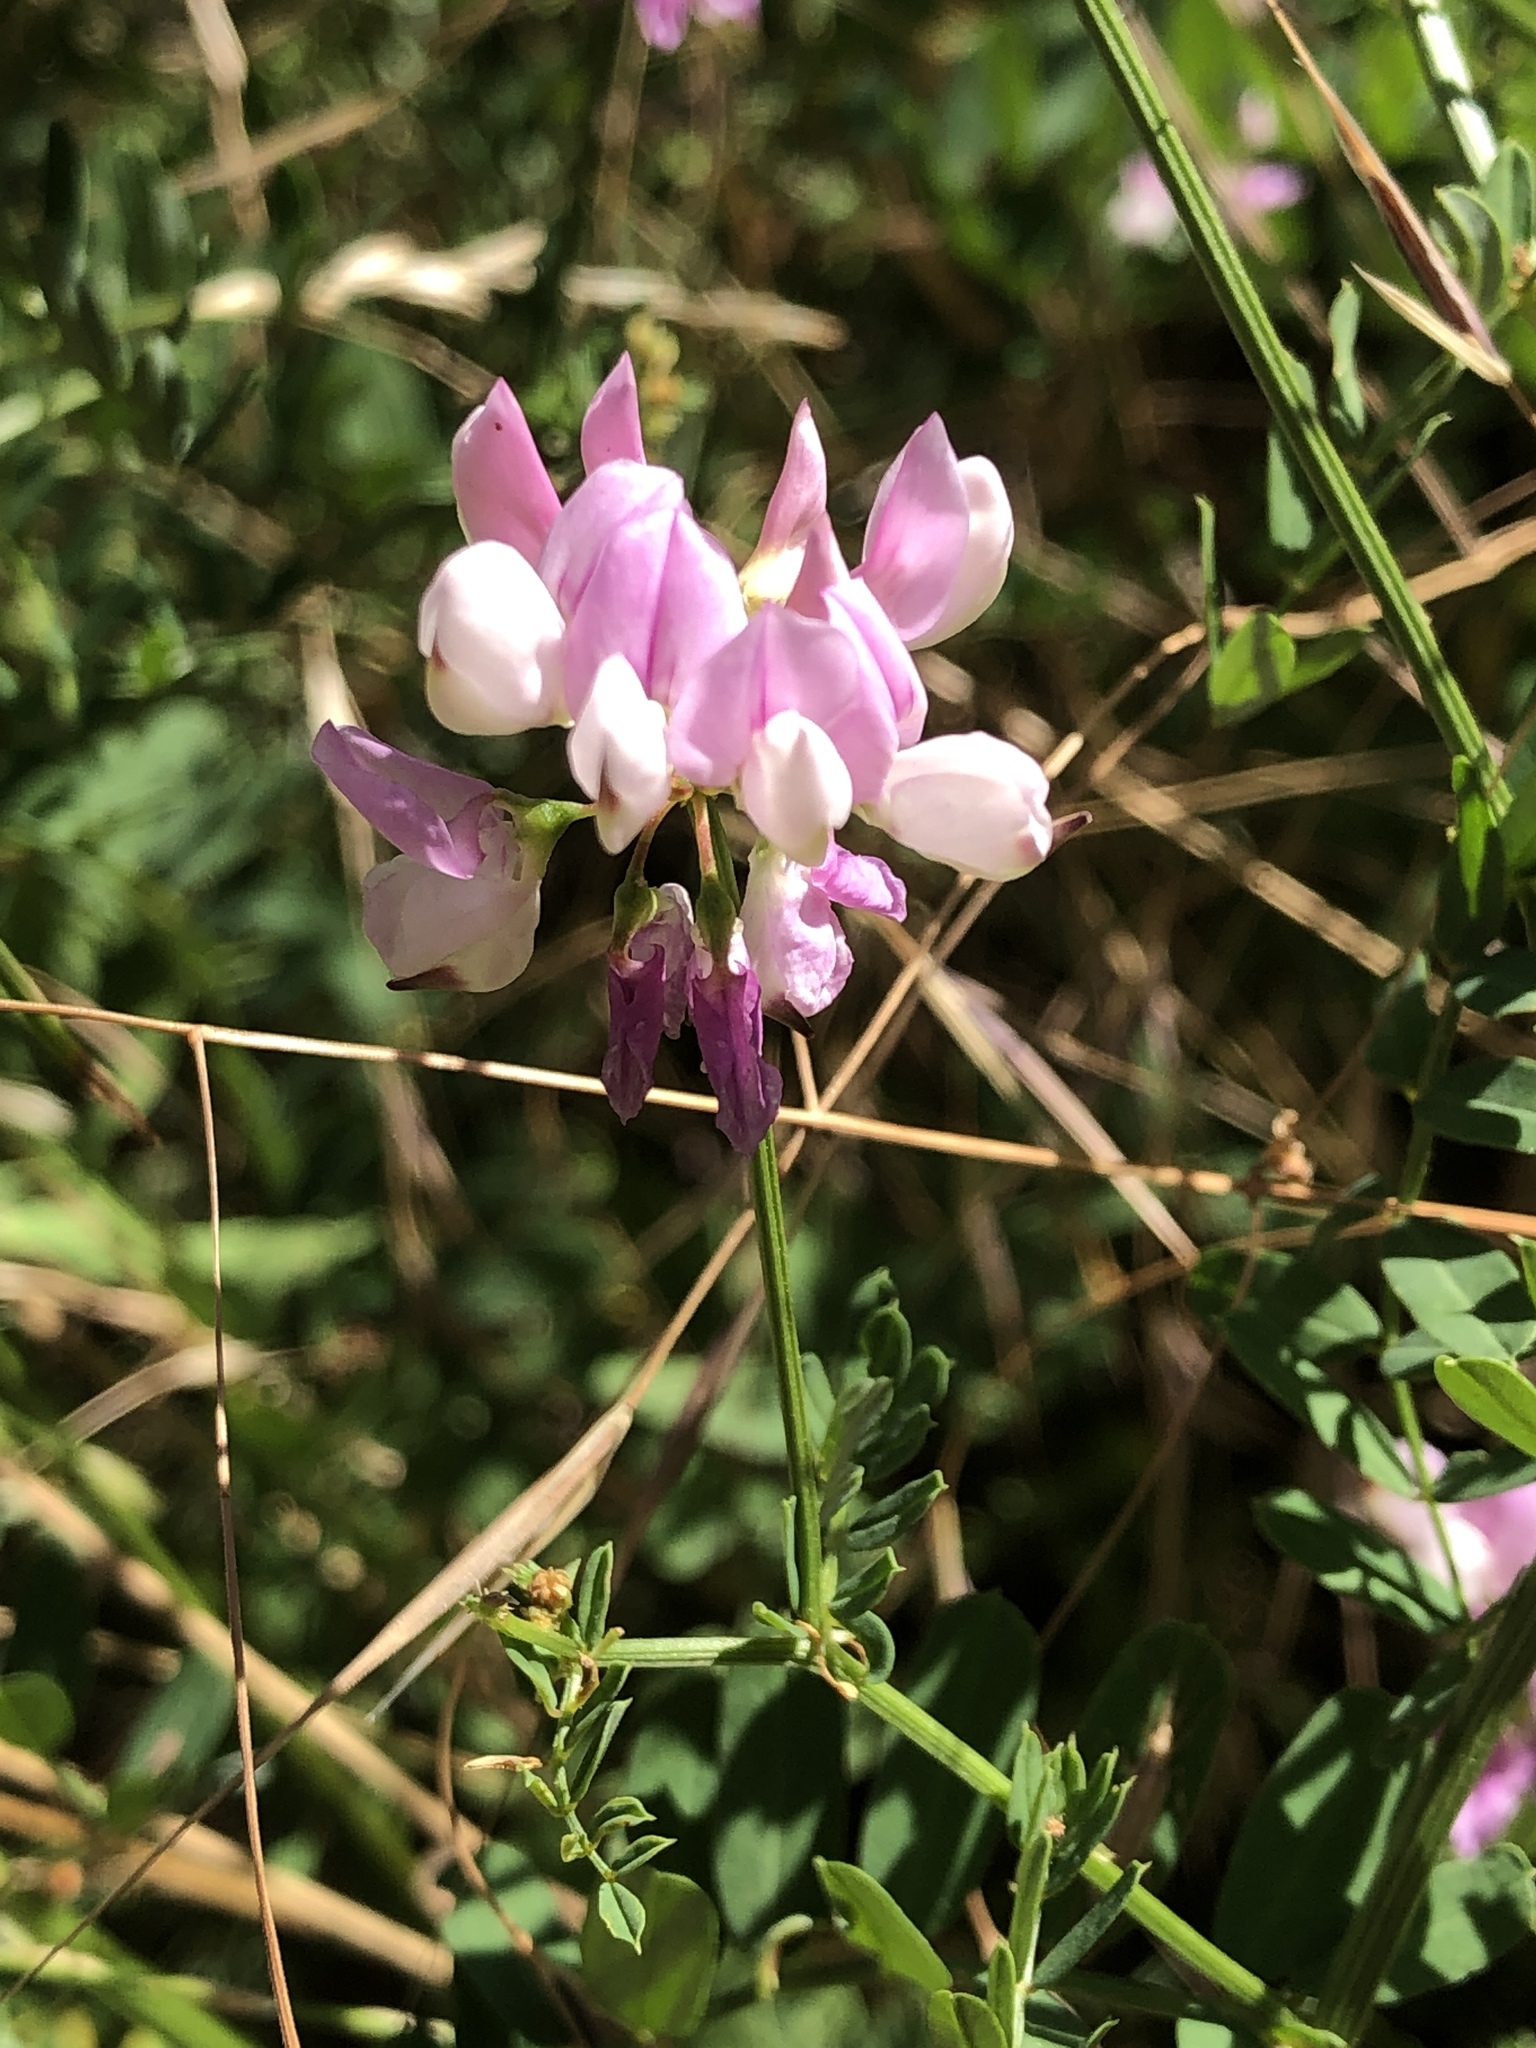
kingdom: Plantae
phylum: Tracheophyta
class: Magnoliopsida
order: Fabales
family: Fabaceae
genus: Coronilla
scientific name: Coronilla varia
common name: Crownvetch
